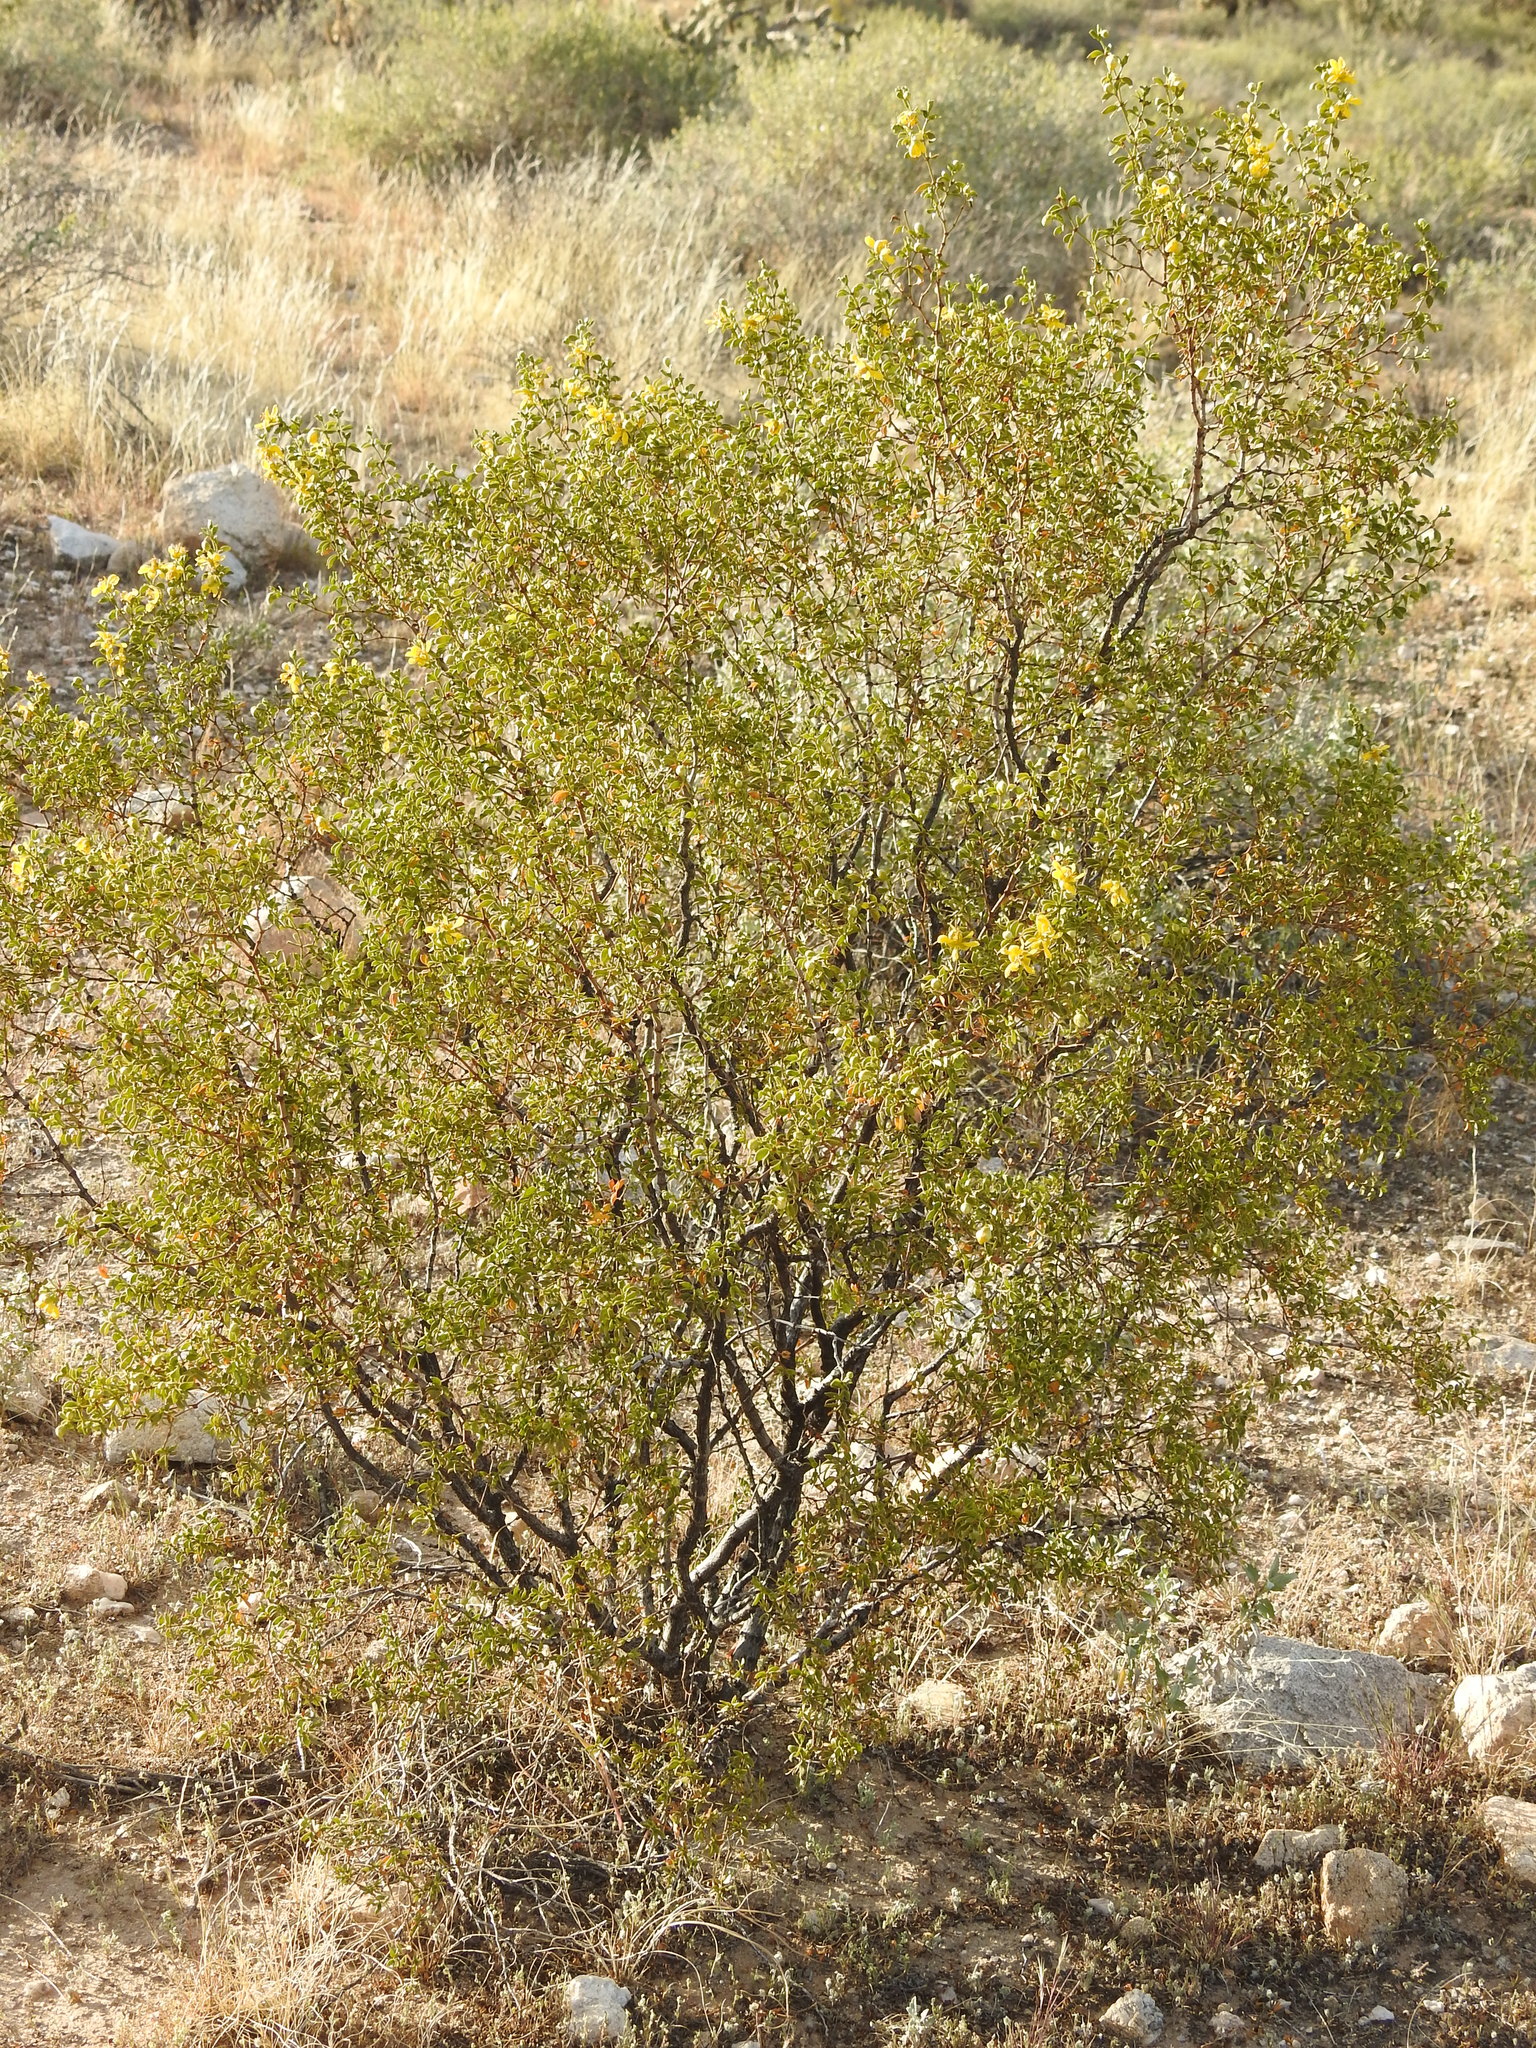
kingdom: Plantae
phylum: Tracheophyta
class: Magnoliopsida
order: Zygophyllales
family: Zygophyllaceae
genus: Larrea
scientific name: Larrea tridentata
